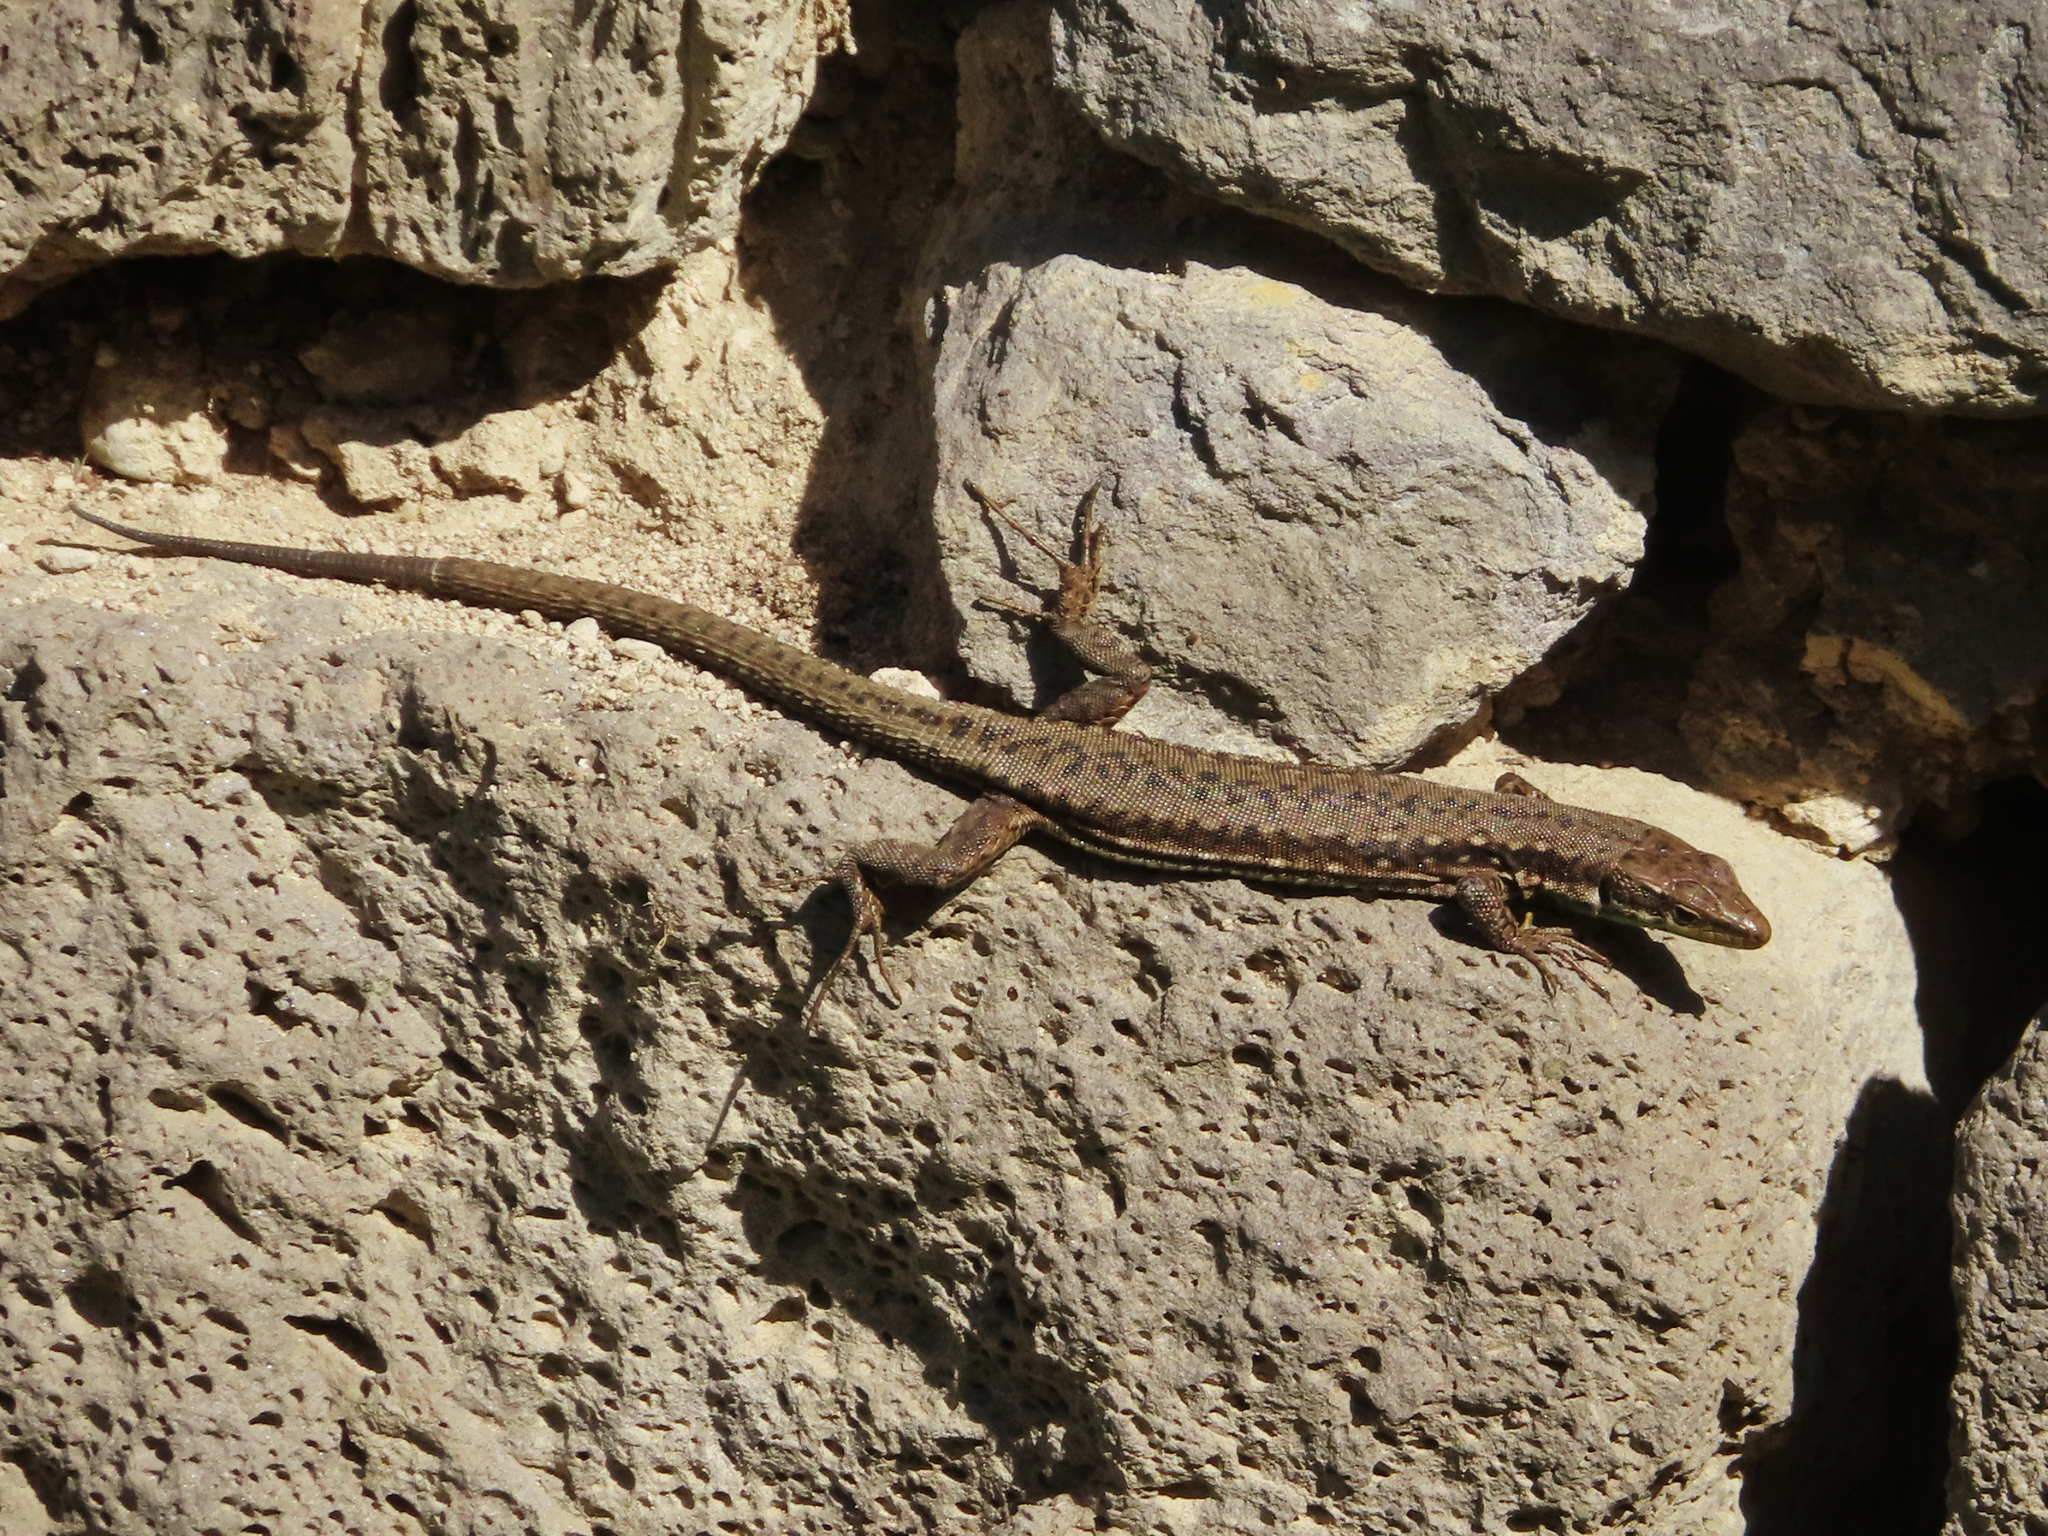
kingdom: Animalia
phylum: Chordata
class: Squamata
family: Lacertidae
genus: Darevskia
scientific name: Darevskia raddei
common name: Radde's lizard
